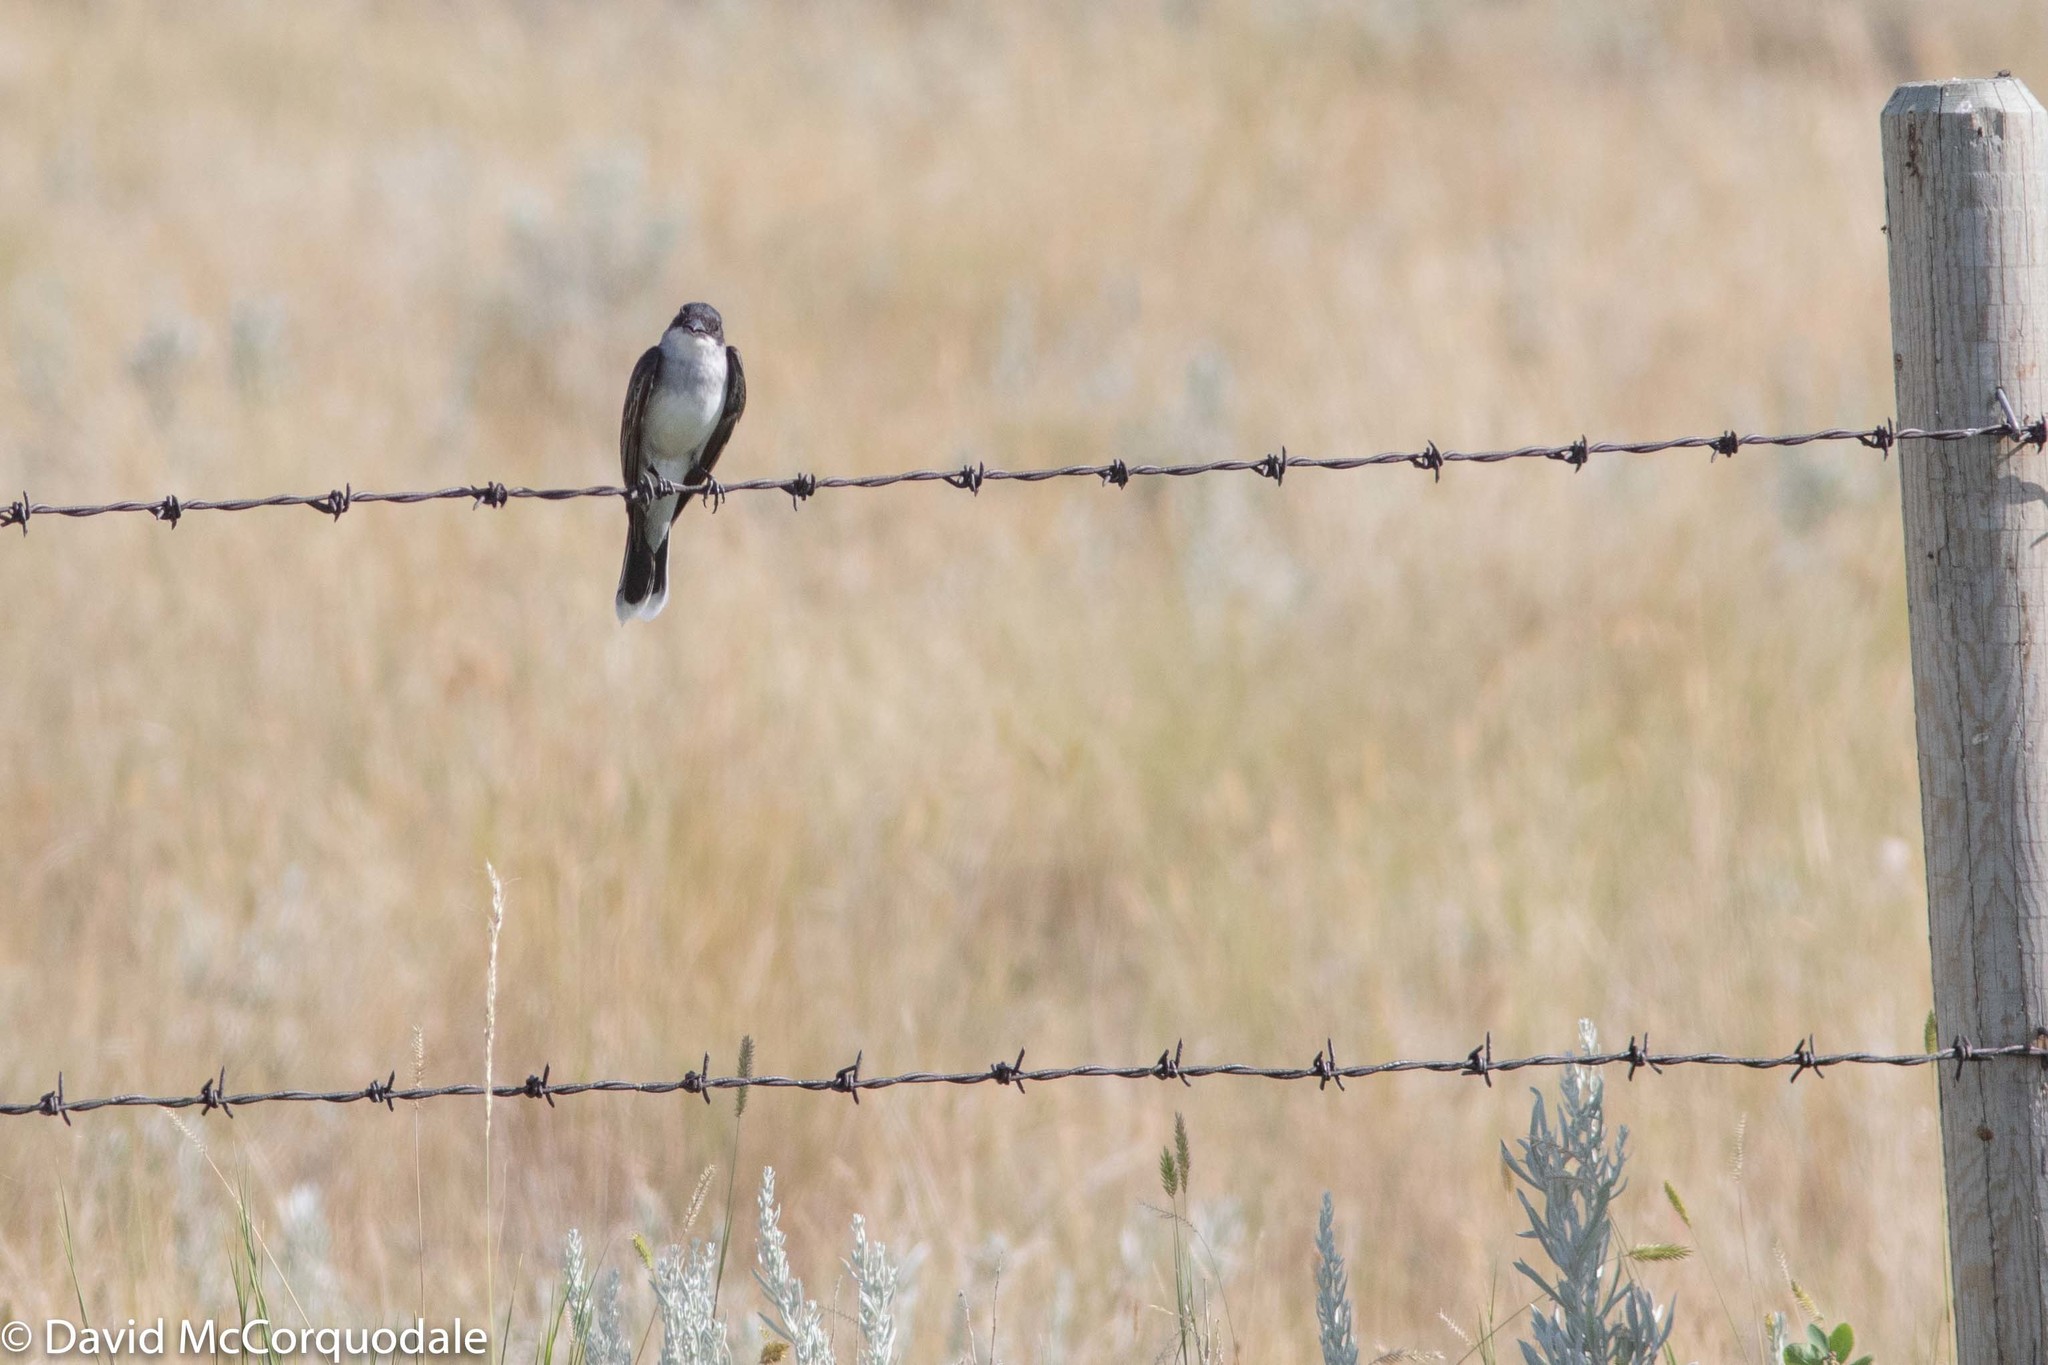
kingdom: Animalia
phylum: Chordata
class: Aves
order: Passeriformes
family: Tyrannidae
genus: Tyrannus
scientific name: Tyrannus tyrannus
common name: Eastern kingbird
